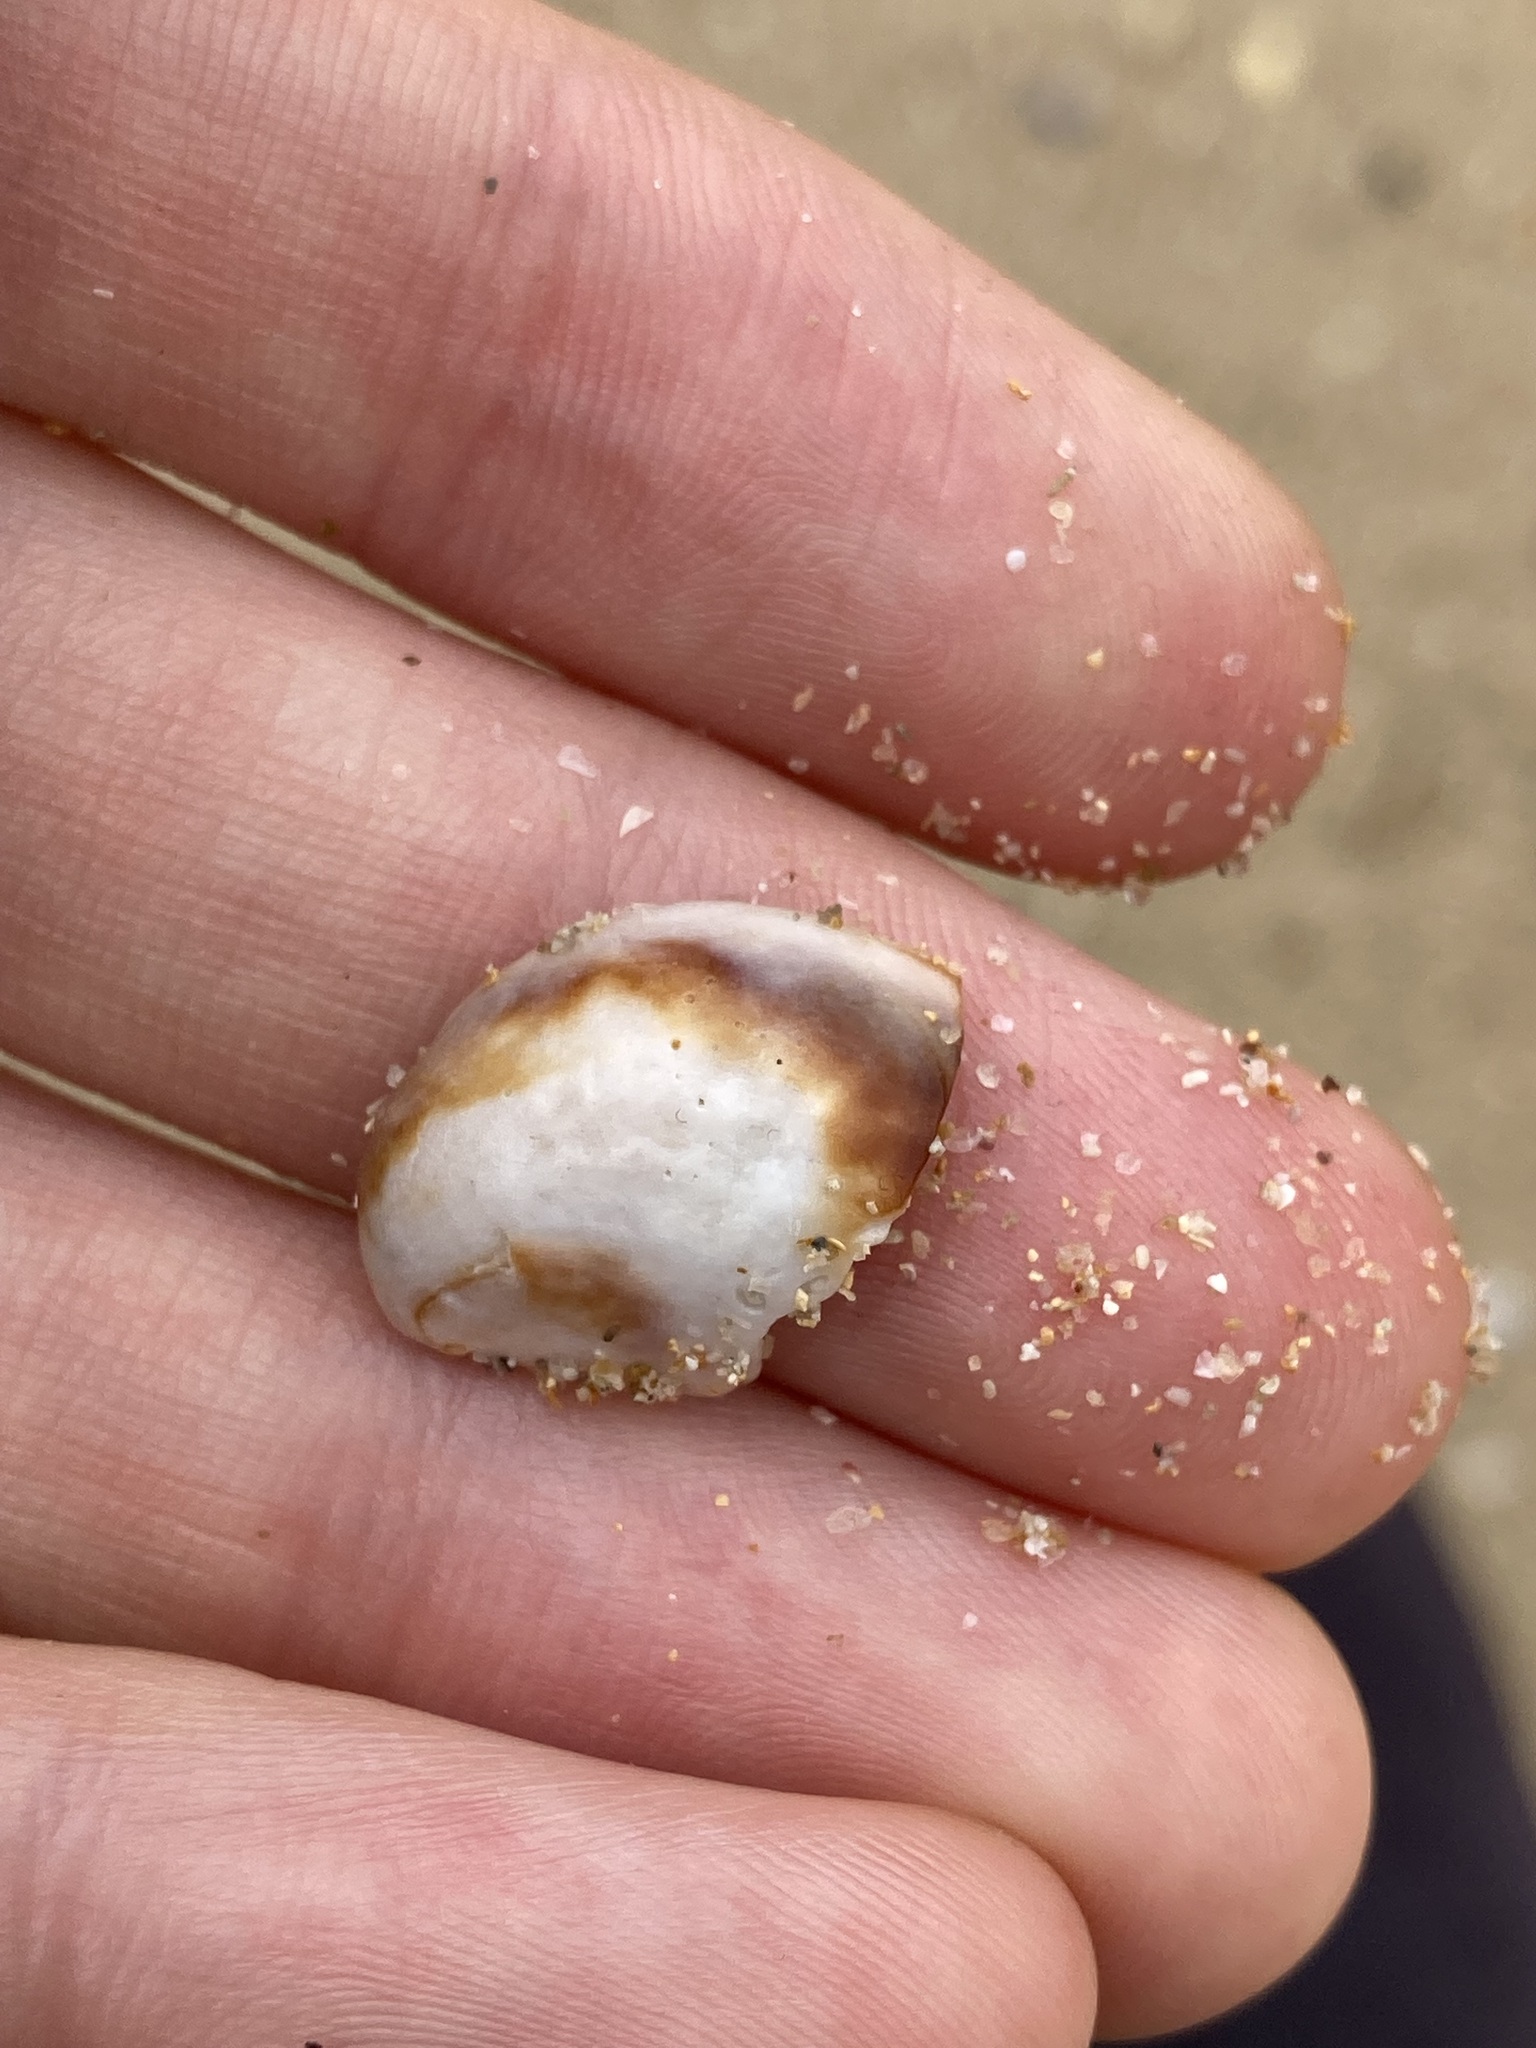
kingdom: Animalia
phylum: Mollusca
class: Gastropoda
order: Littorinimorpha
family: Calyptraeidae
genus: Bostrycapulus
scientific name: Bostrycapulus pritzkeri
